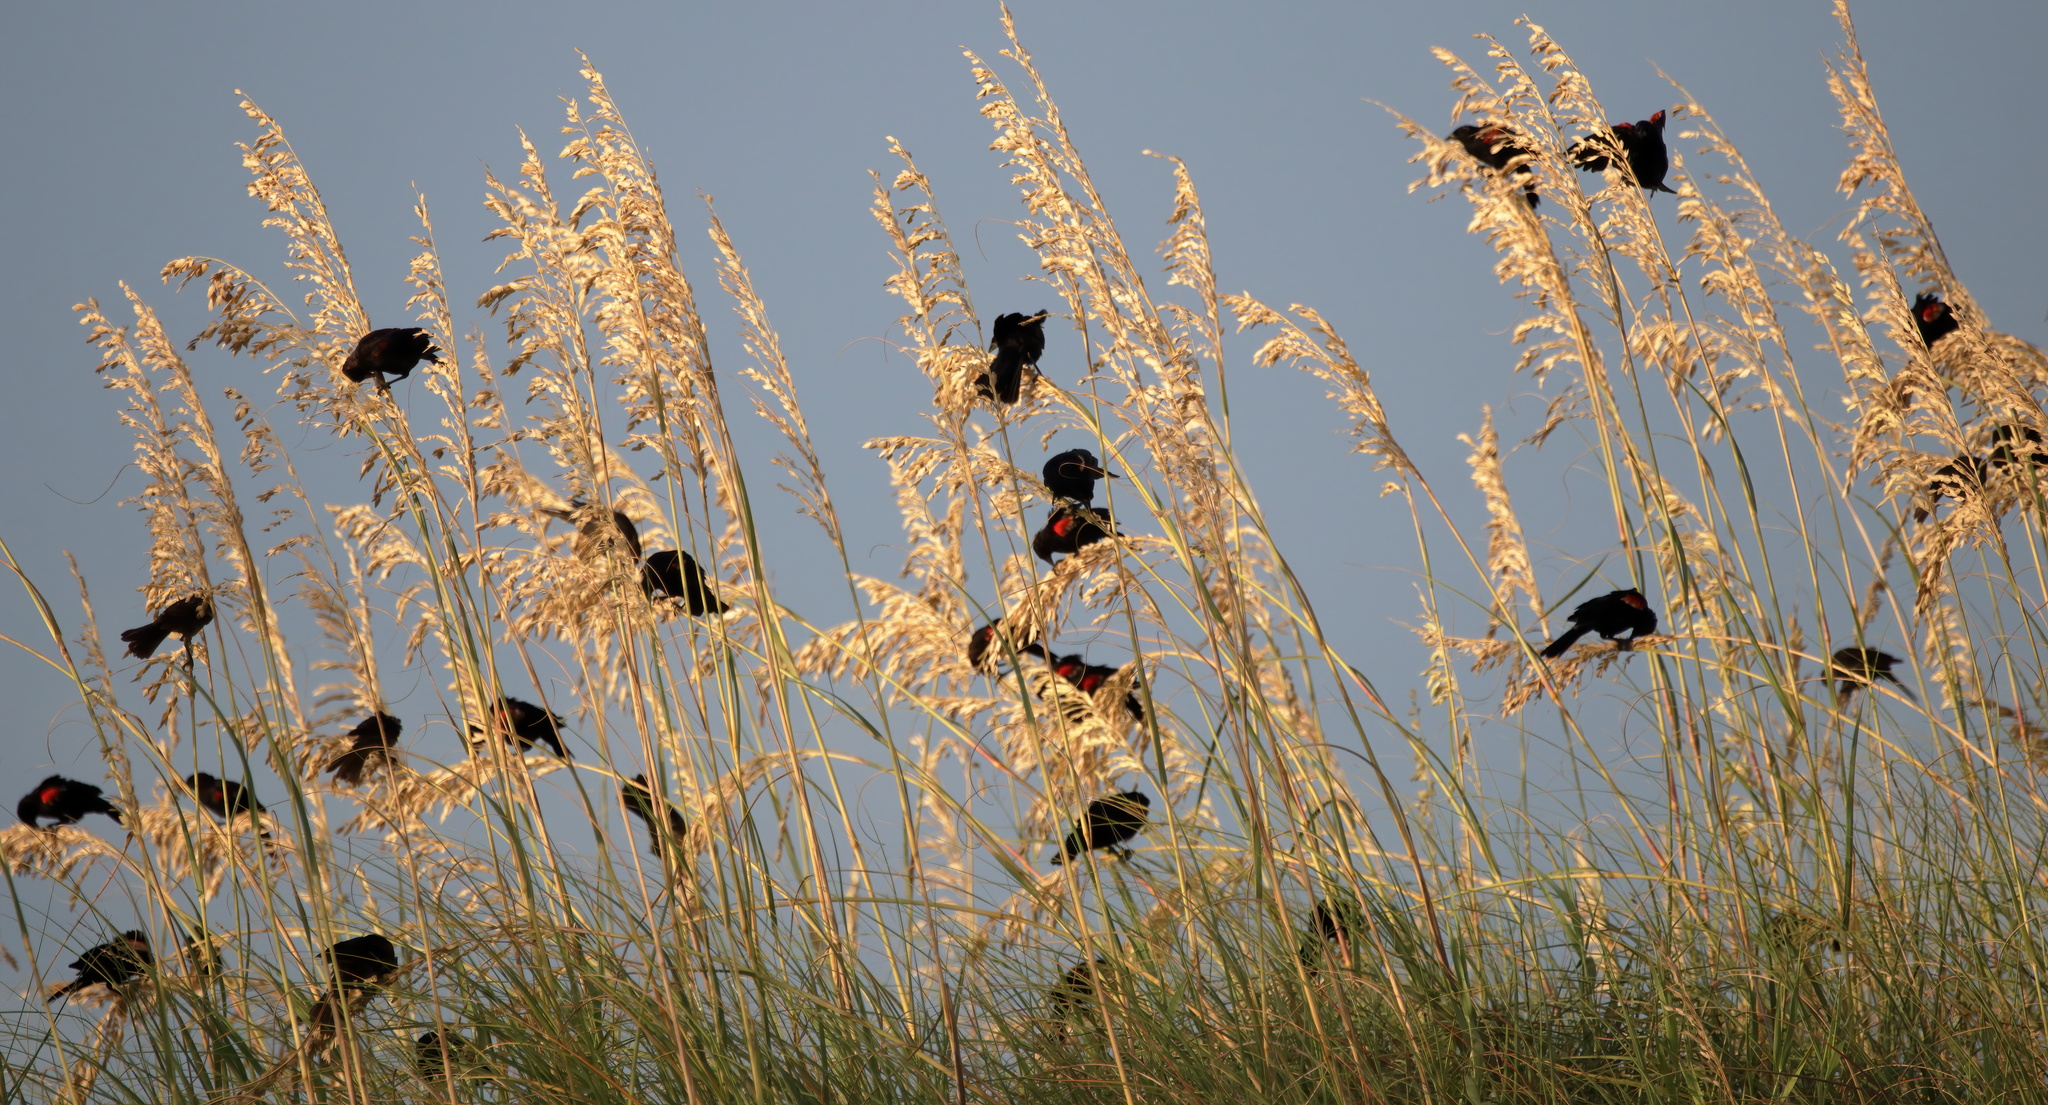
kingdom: Animalia
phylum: Chordata
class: Aves
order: Passeriformes
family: Icteridae
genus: Agelaius
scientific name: Agelaius phoeniceus
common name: Red-winged blackbird
